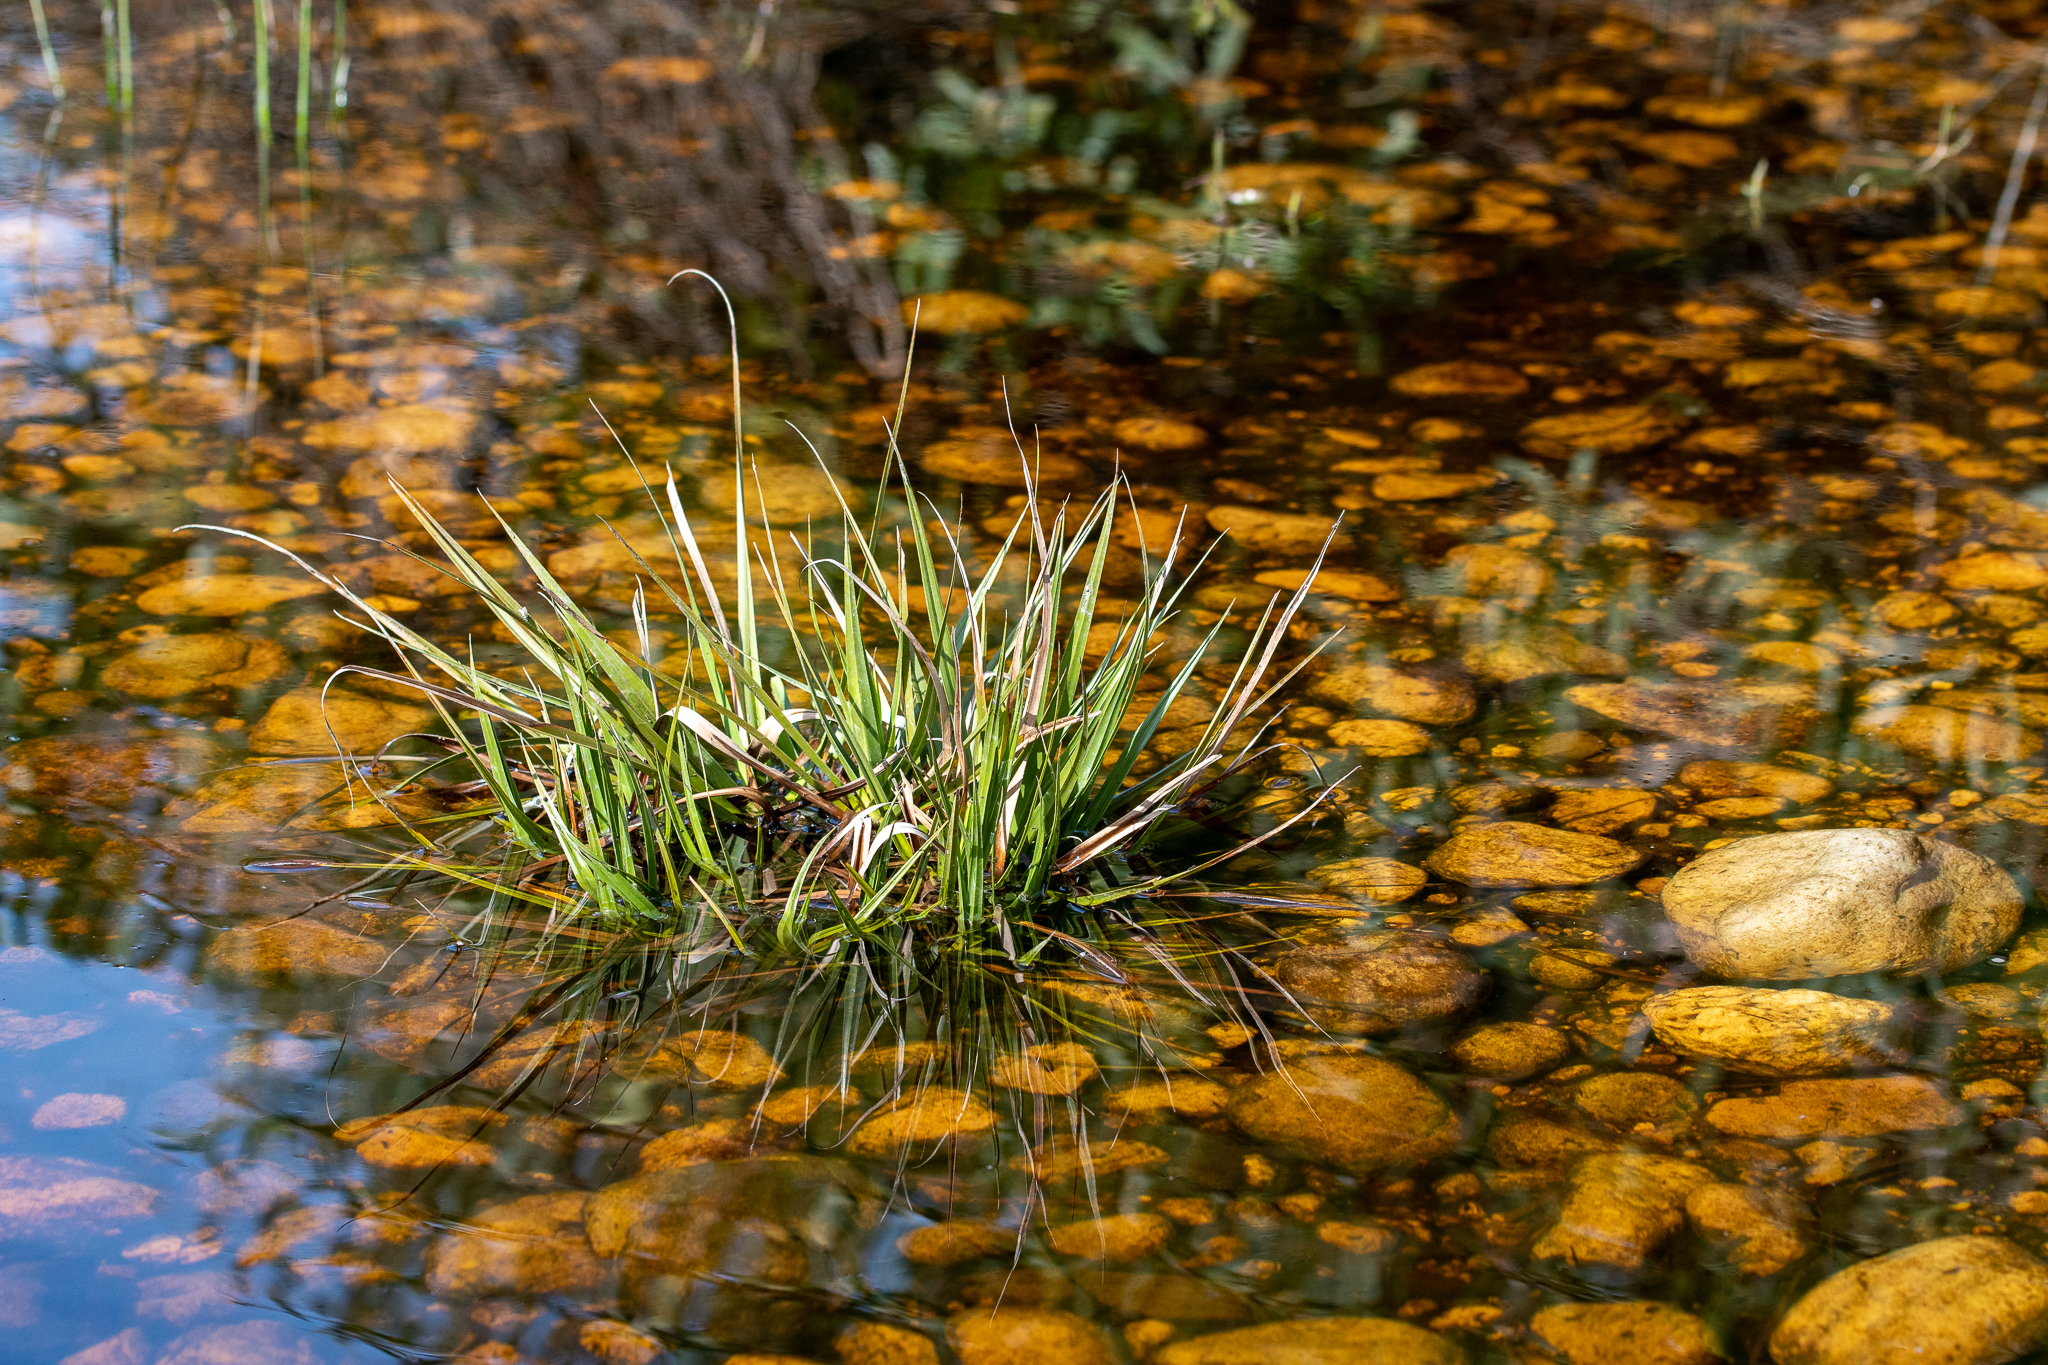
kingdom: Plantae
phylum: Tracheophyta
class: Liliopsida
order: Poales
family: Thurniaceae
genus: Prionium
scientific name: Prionium serratum
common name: Palmiet
